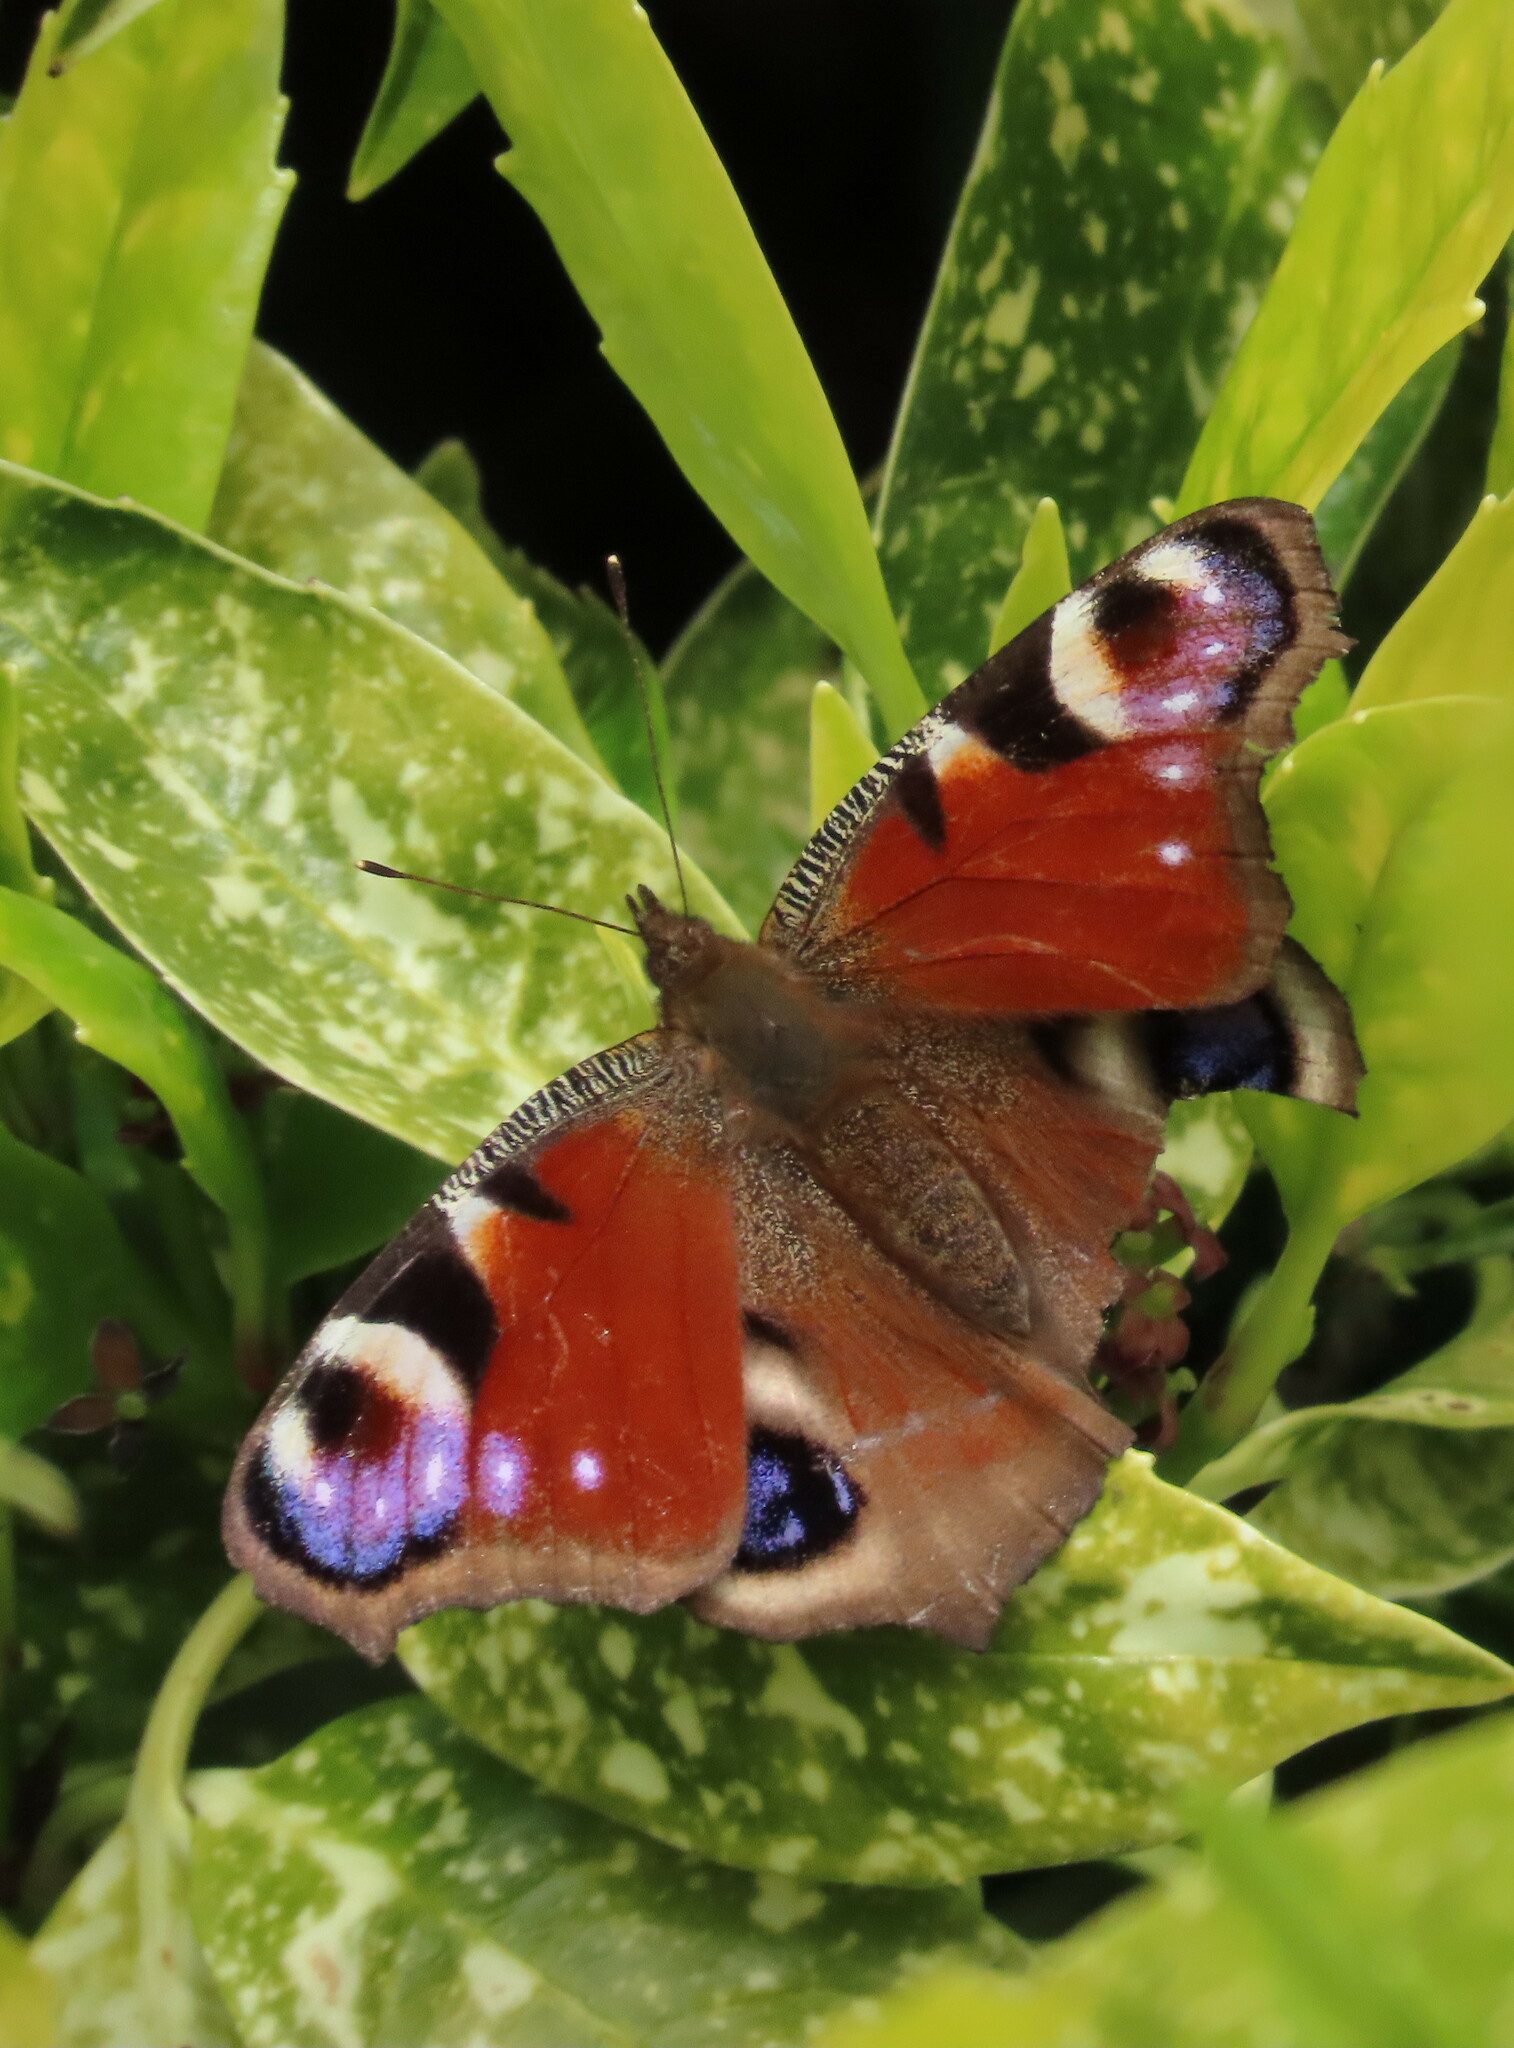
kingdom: Animalia
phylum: Arthropoda
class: Insecta
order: Lepidoptera
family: Nymphalidae
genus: Aglais
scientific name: Aglais io
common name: Peacock
